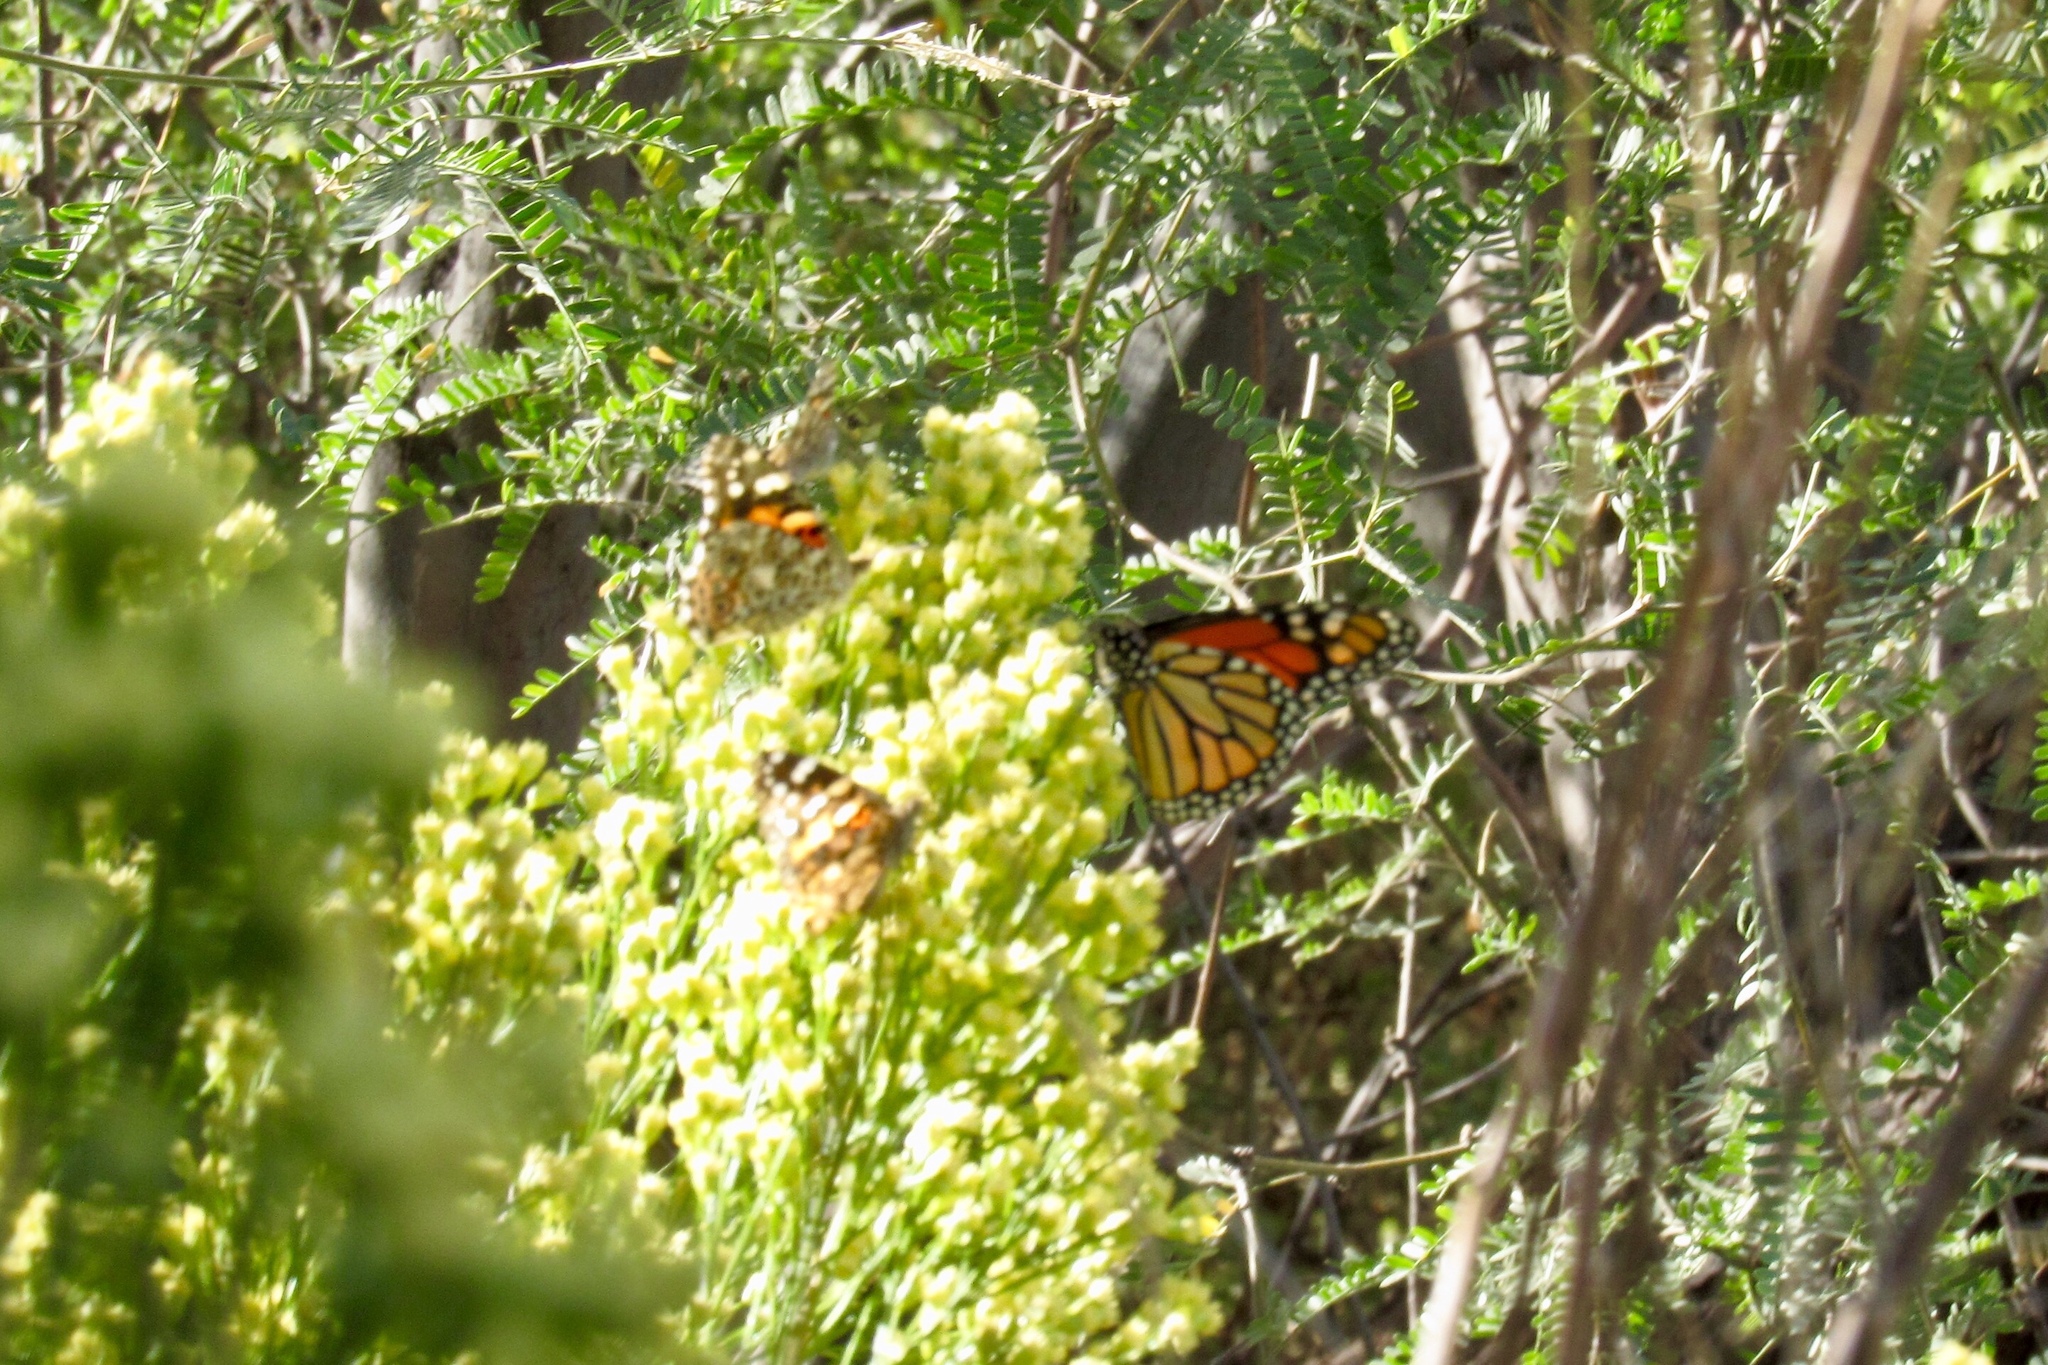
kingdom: Animalia
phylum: Arthropoda
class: Insecta
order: Lepidoptera
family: Nymphalidae
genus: Danaus
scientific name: Danaus plexippus
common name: Monarch
